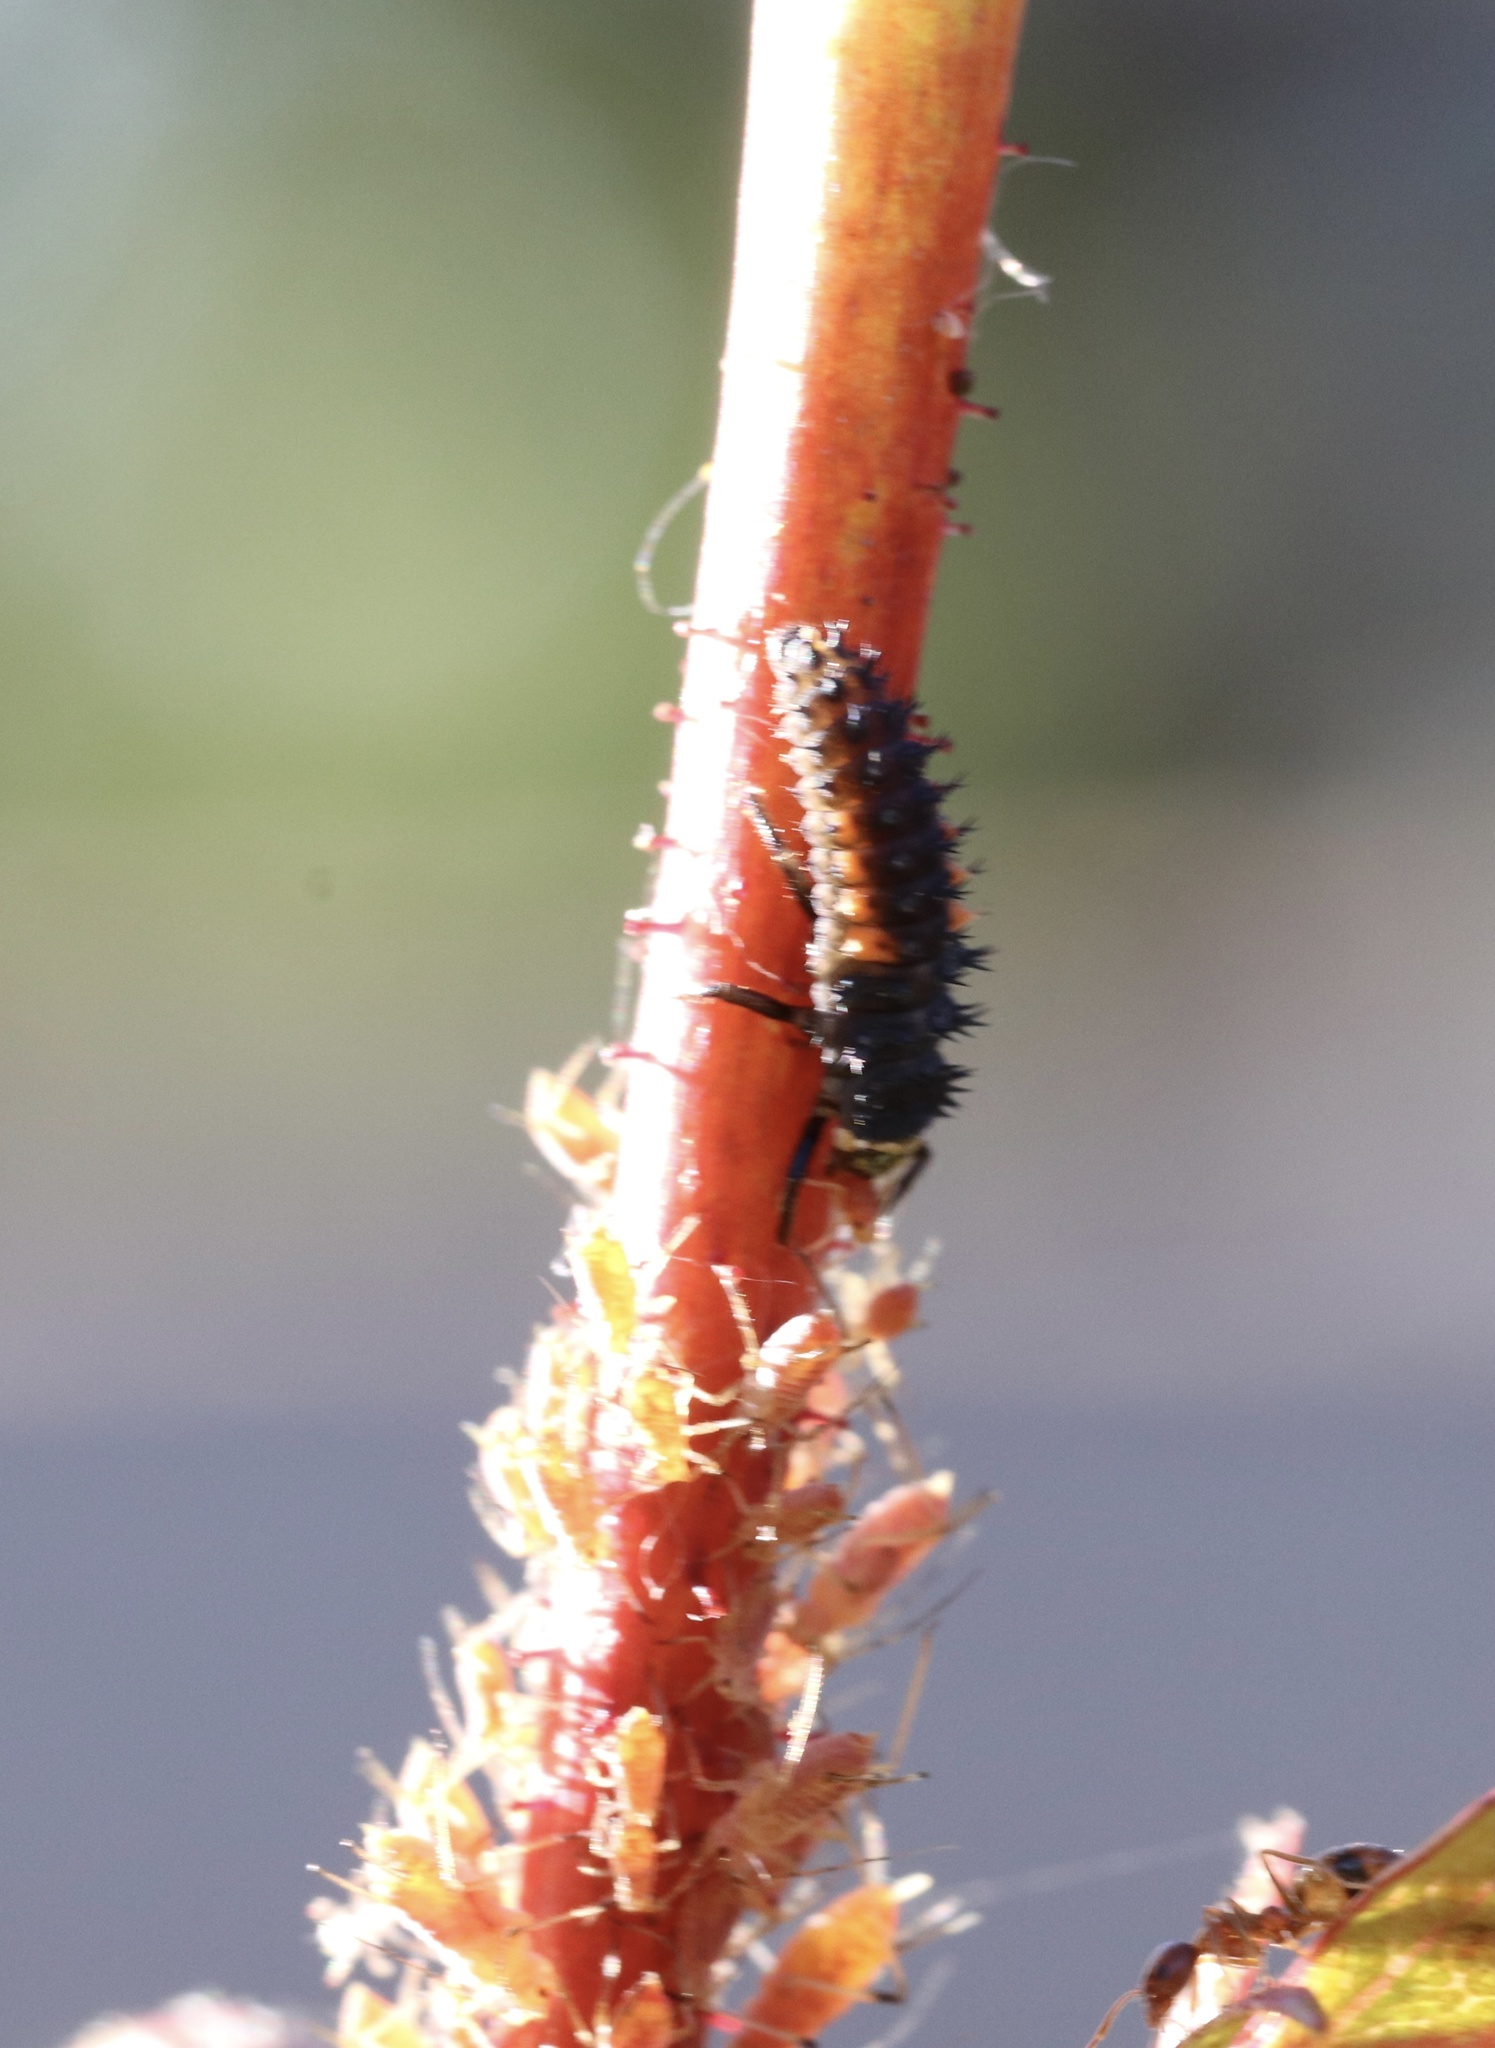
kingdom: Animalia
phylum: Arthropoda
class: Insecta
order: Coleoptera
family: Coccinellidae
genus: Harmonia
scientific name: Harmonia axyridis
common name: Harlequin ladybird
